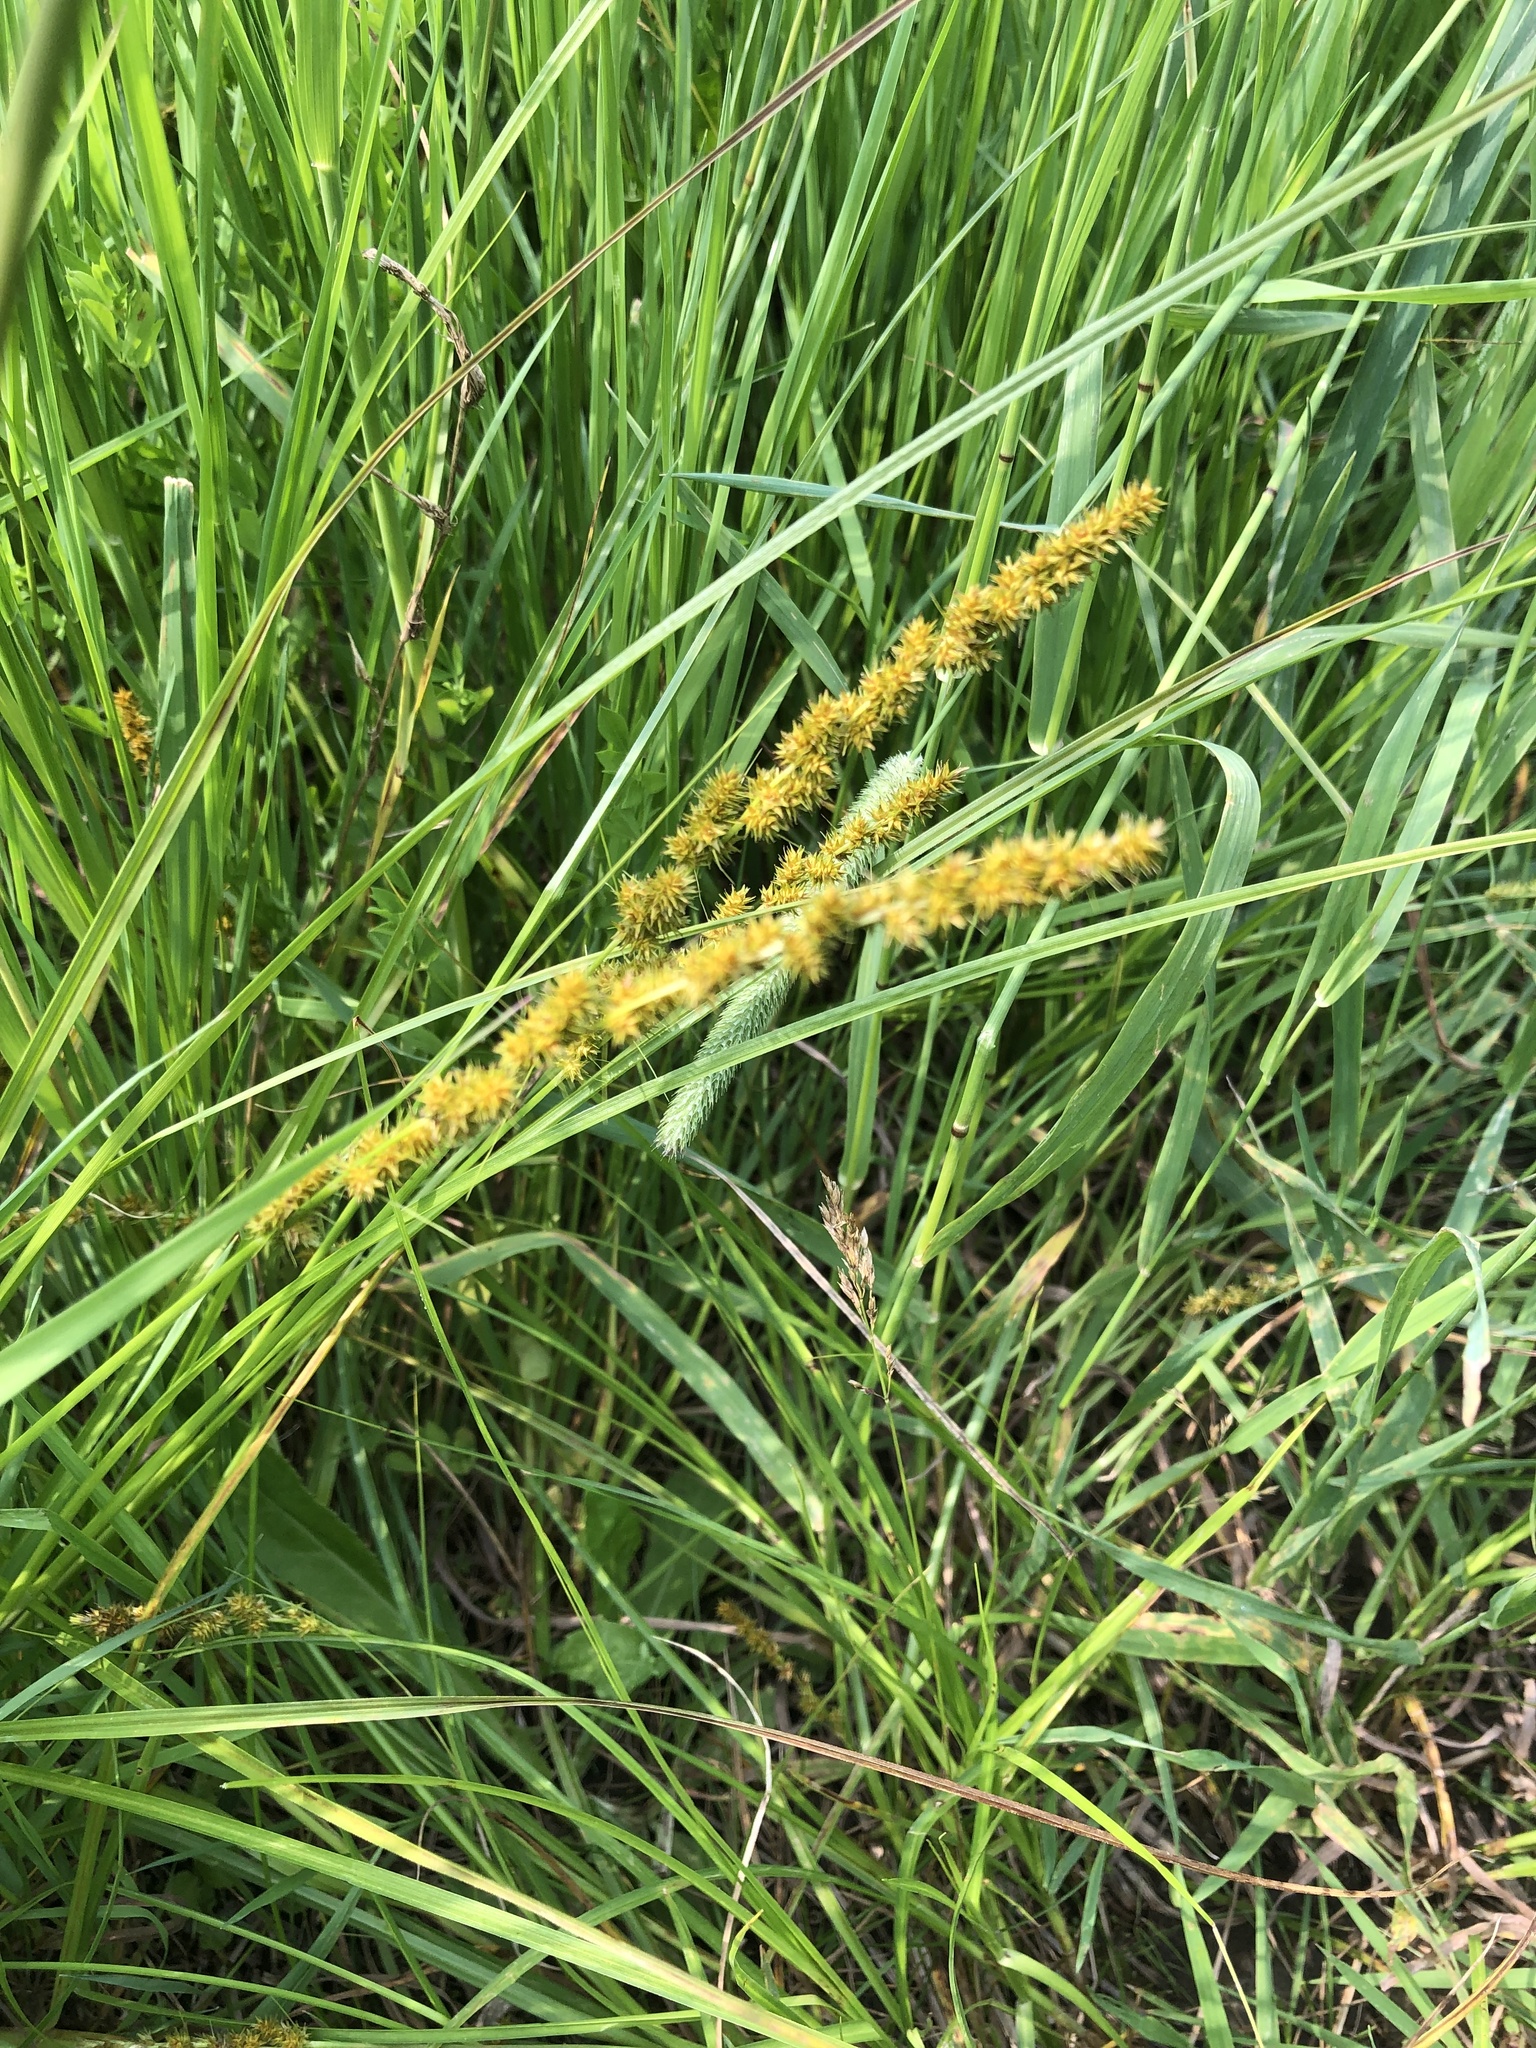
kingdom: Plantae
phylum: Tracheophyta
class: Liliopsida
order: Poales
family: Cyperaceae
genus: Carex
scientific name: Carex vulpinoidea
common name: American fox-sedge
